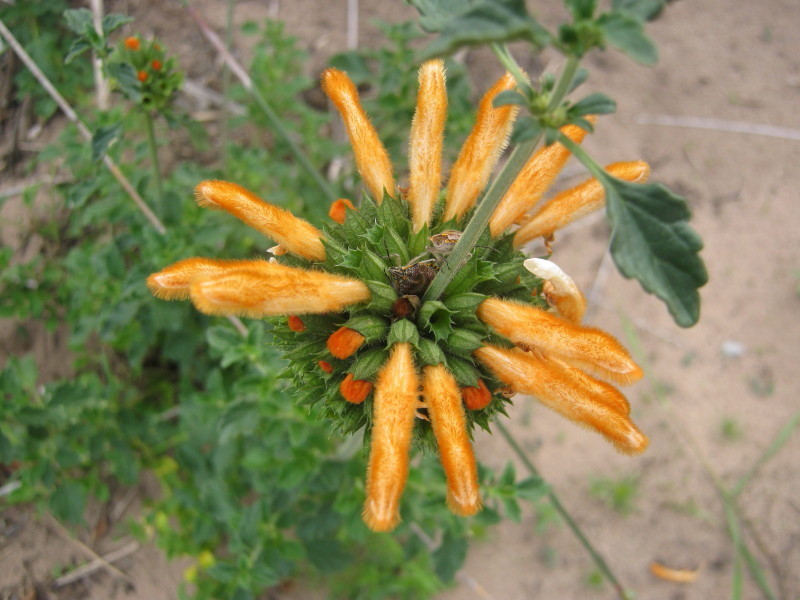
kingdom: Plantae
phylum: Tracheophyta
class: Magnoliopsida
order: Lamiales
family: Lamiaceae
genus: Leonotis
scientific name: Leonotis ocymifolia
